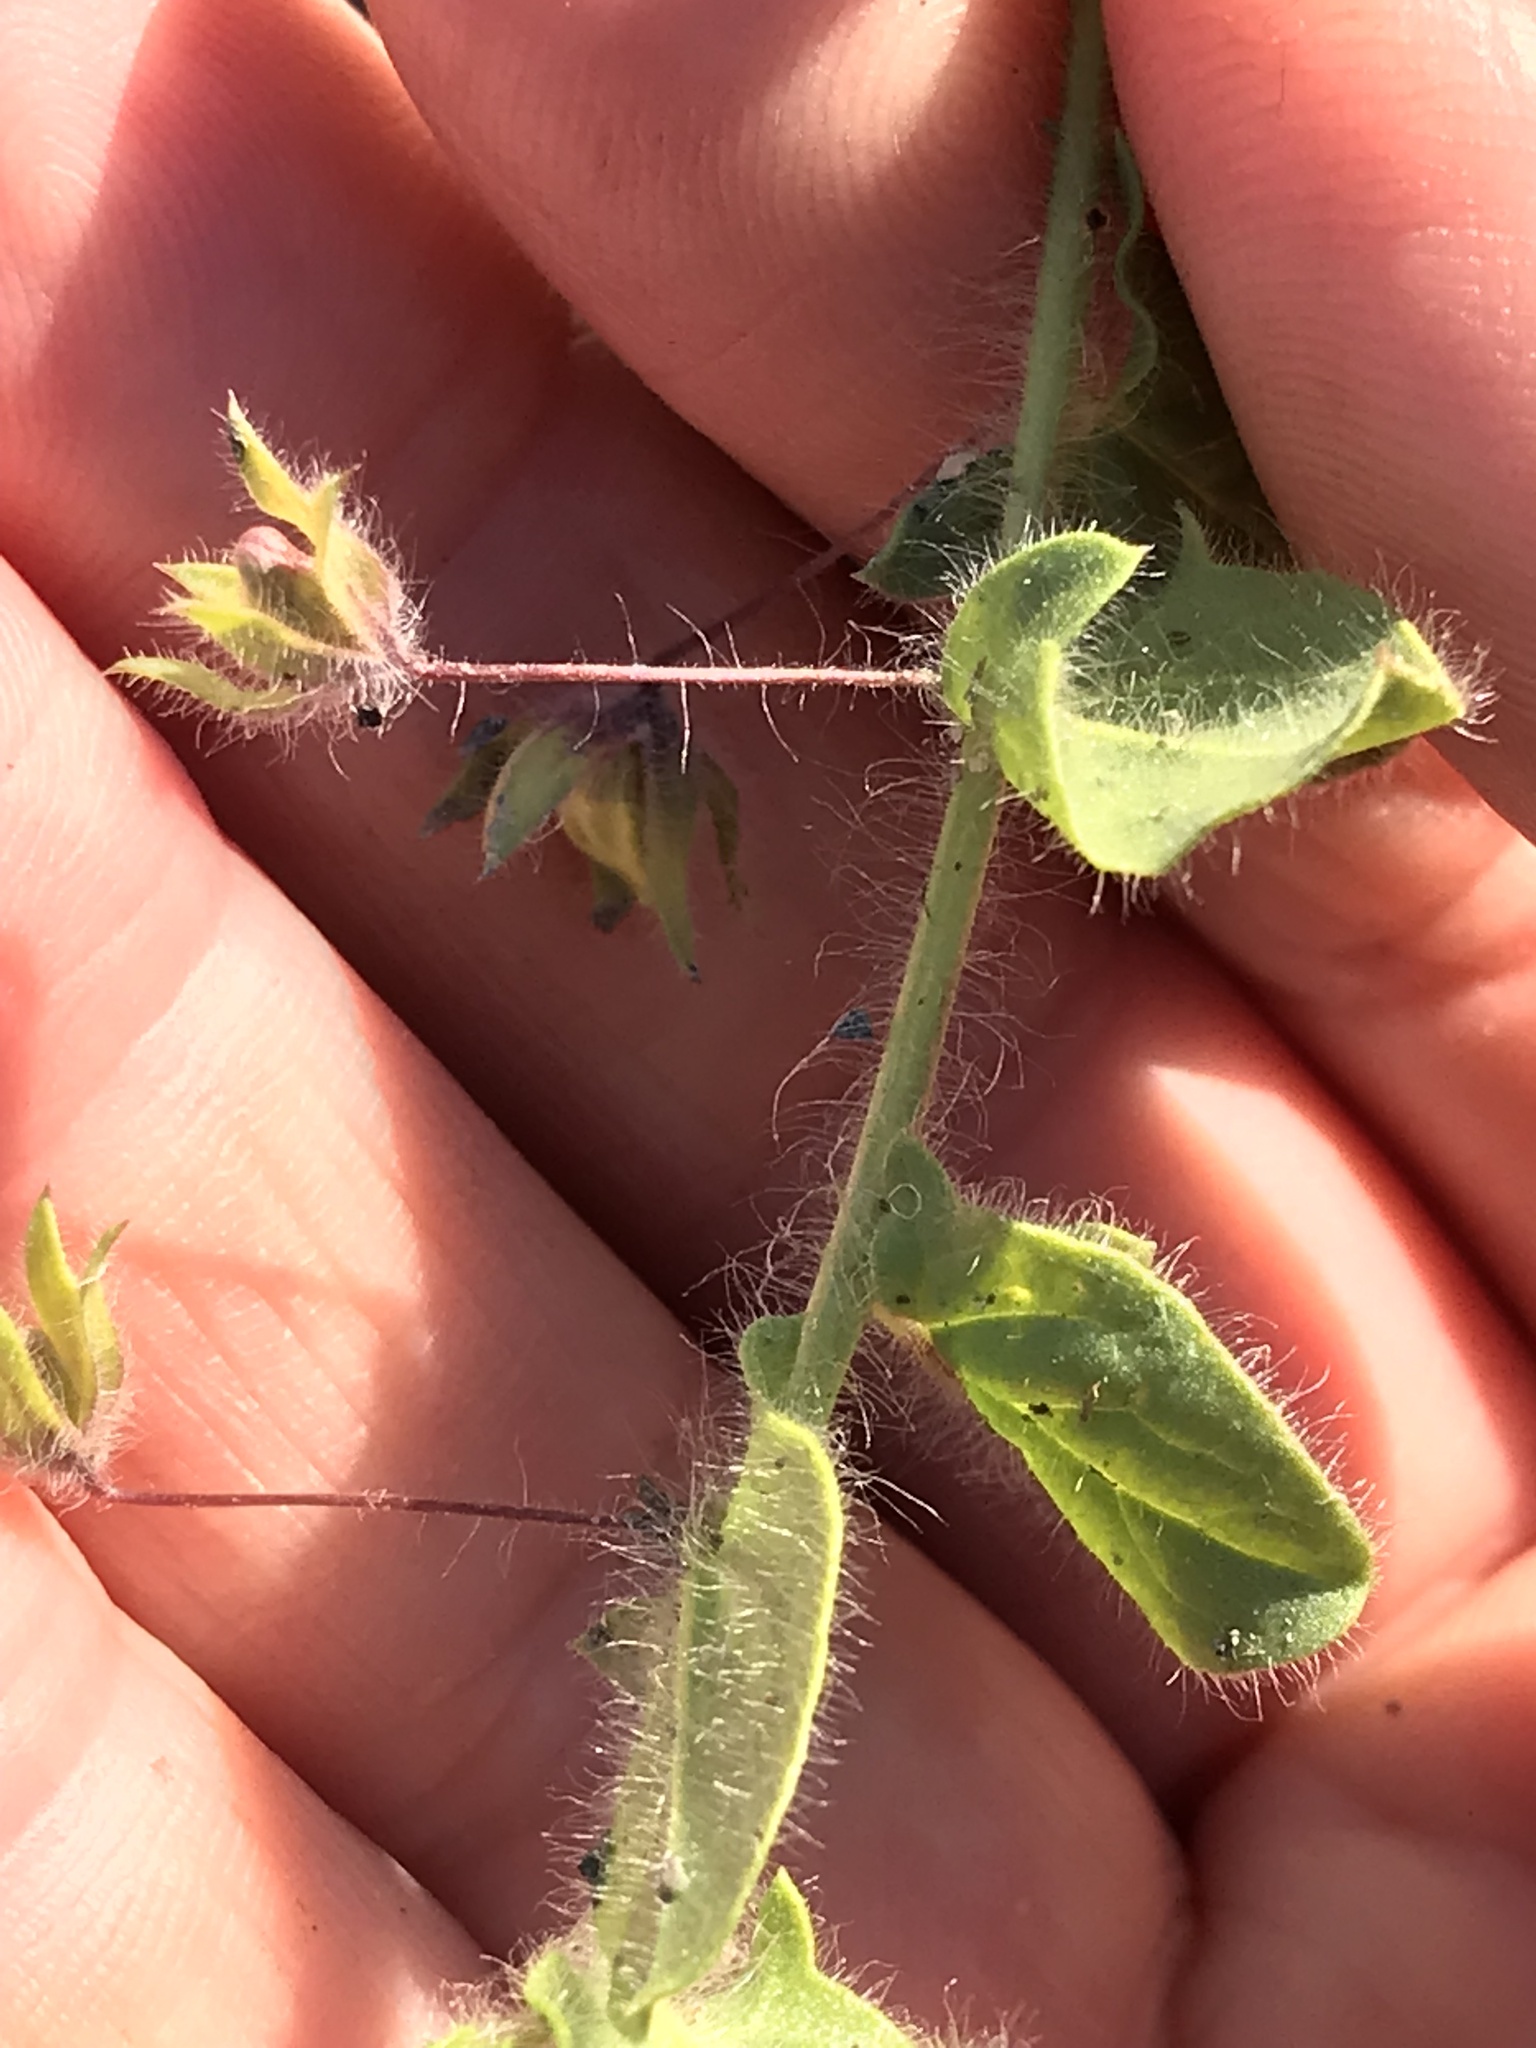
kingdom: Plantae
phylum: Tracheophyta
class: Magnoliopsida
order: Lamiales
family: Plantaginaceae
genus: Kickxia
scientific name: Kickxia elatine
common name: Sharp-leaved fluellen
